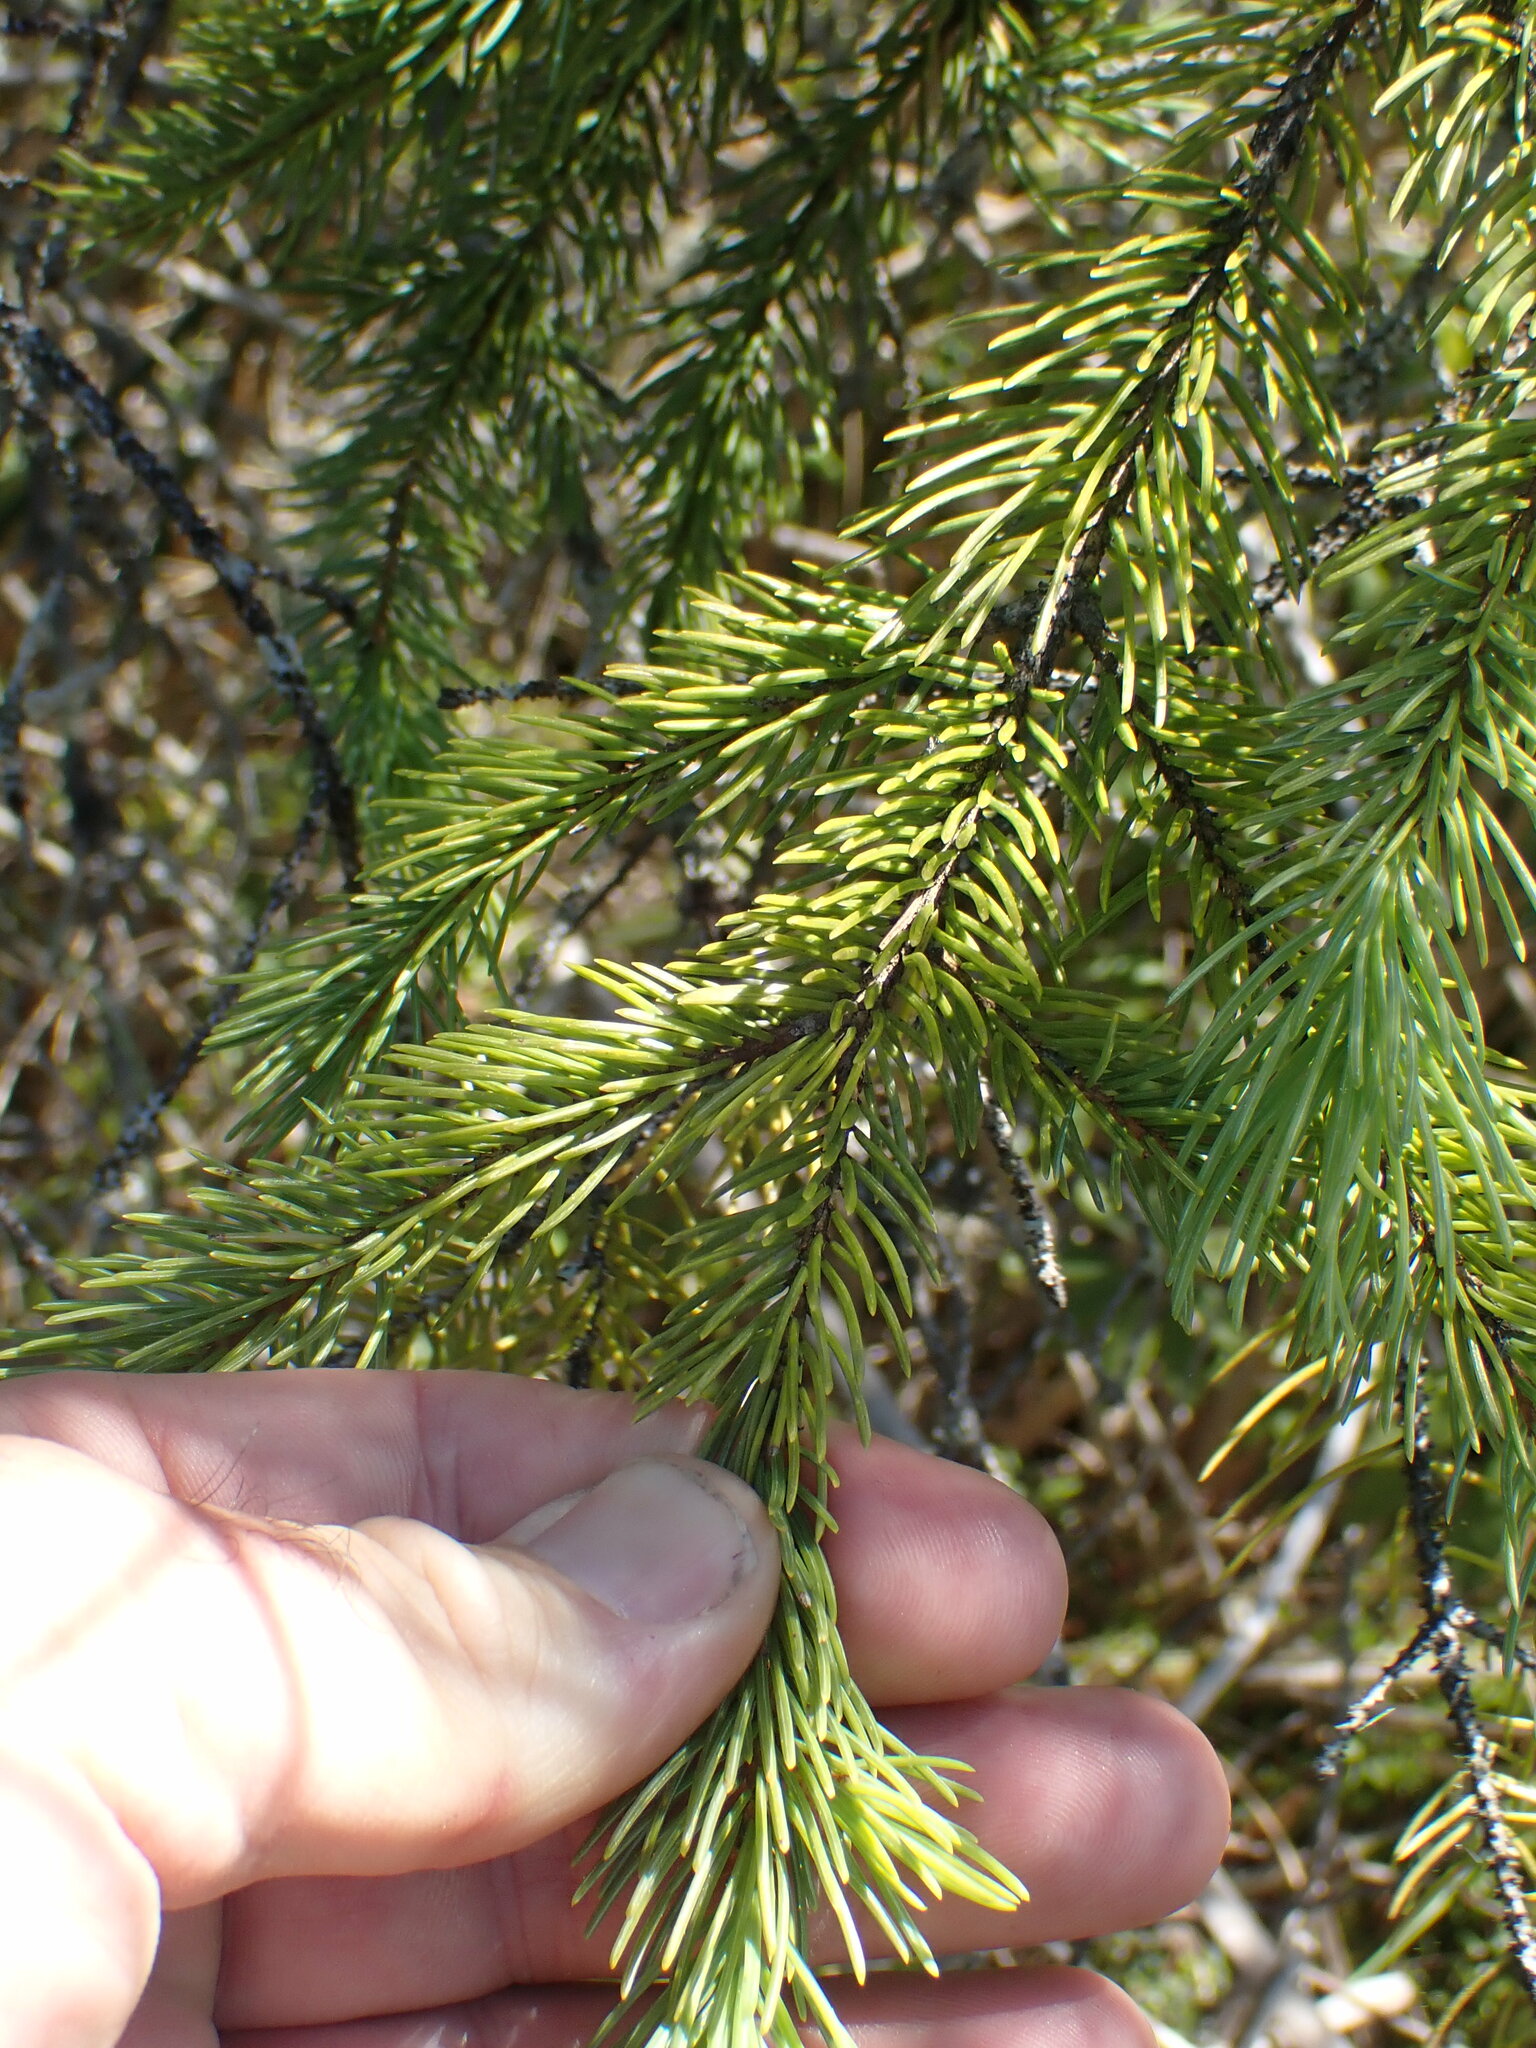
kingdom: Plantae
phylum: Tracheophyta
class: Pinopsida
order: Pinales
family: Pinaceae
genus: Picea
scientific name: Picea engelmannii
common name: Engelmann spruce
